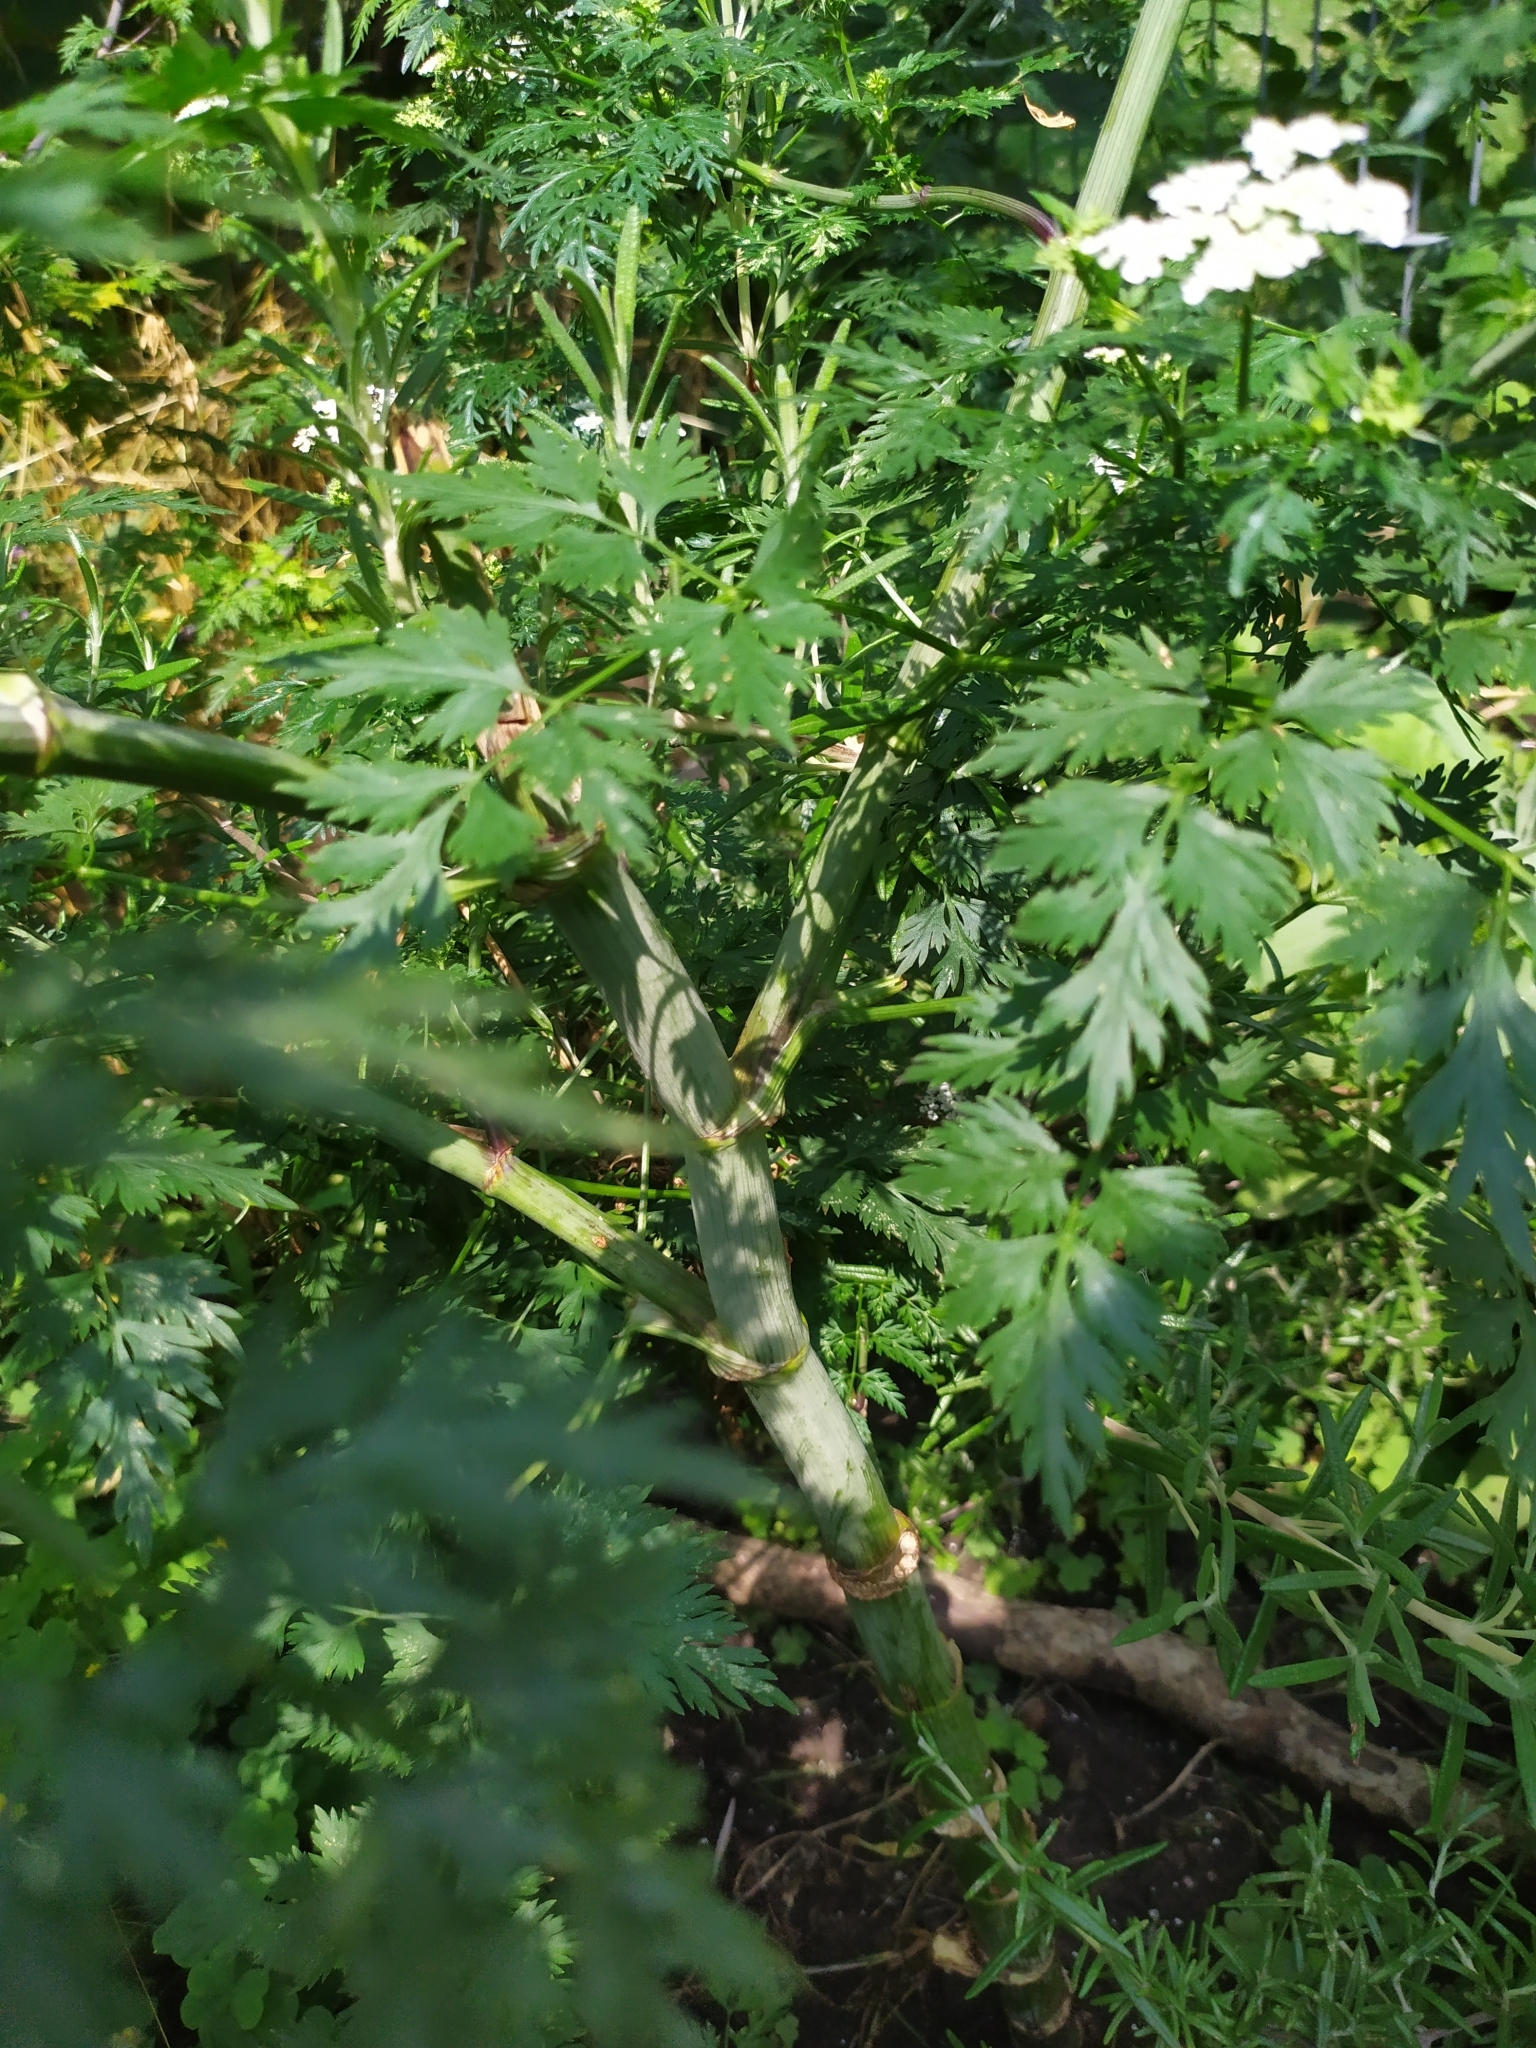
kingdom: Plantae
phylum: Tracheophyta
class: Magnoliopsida
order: Apiales
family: Apiaceae
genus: Aethusa
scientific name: Aethusa cynapium
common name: Fool's parsley
